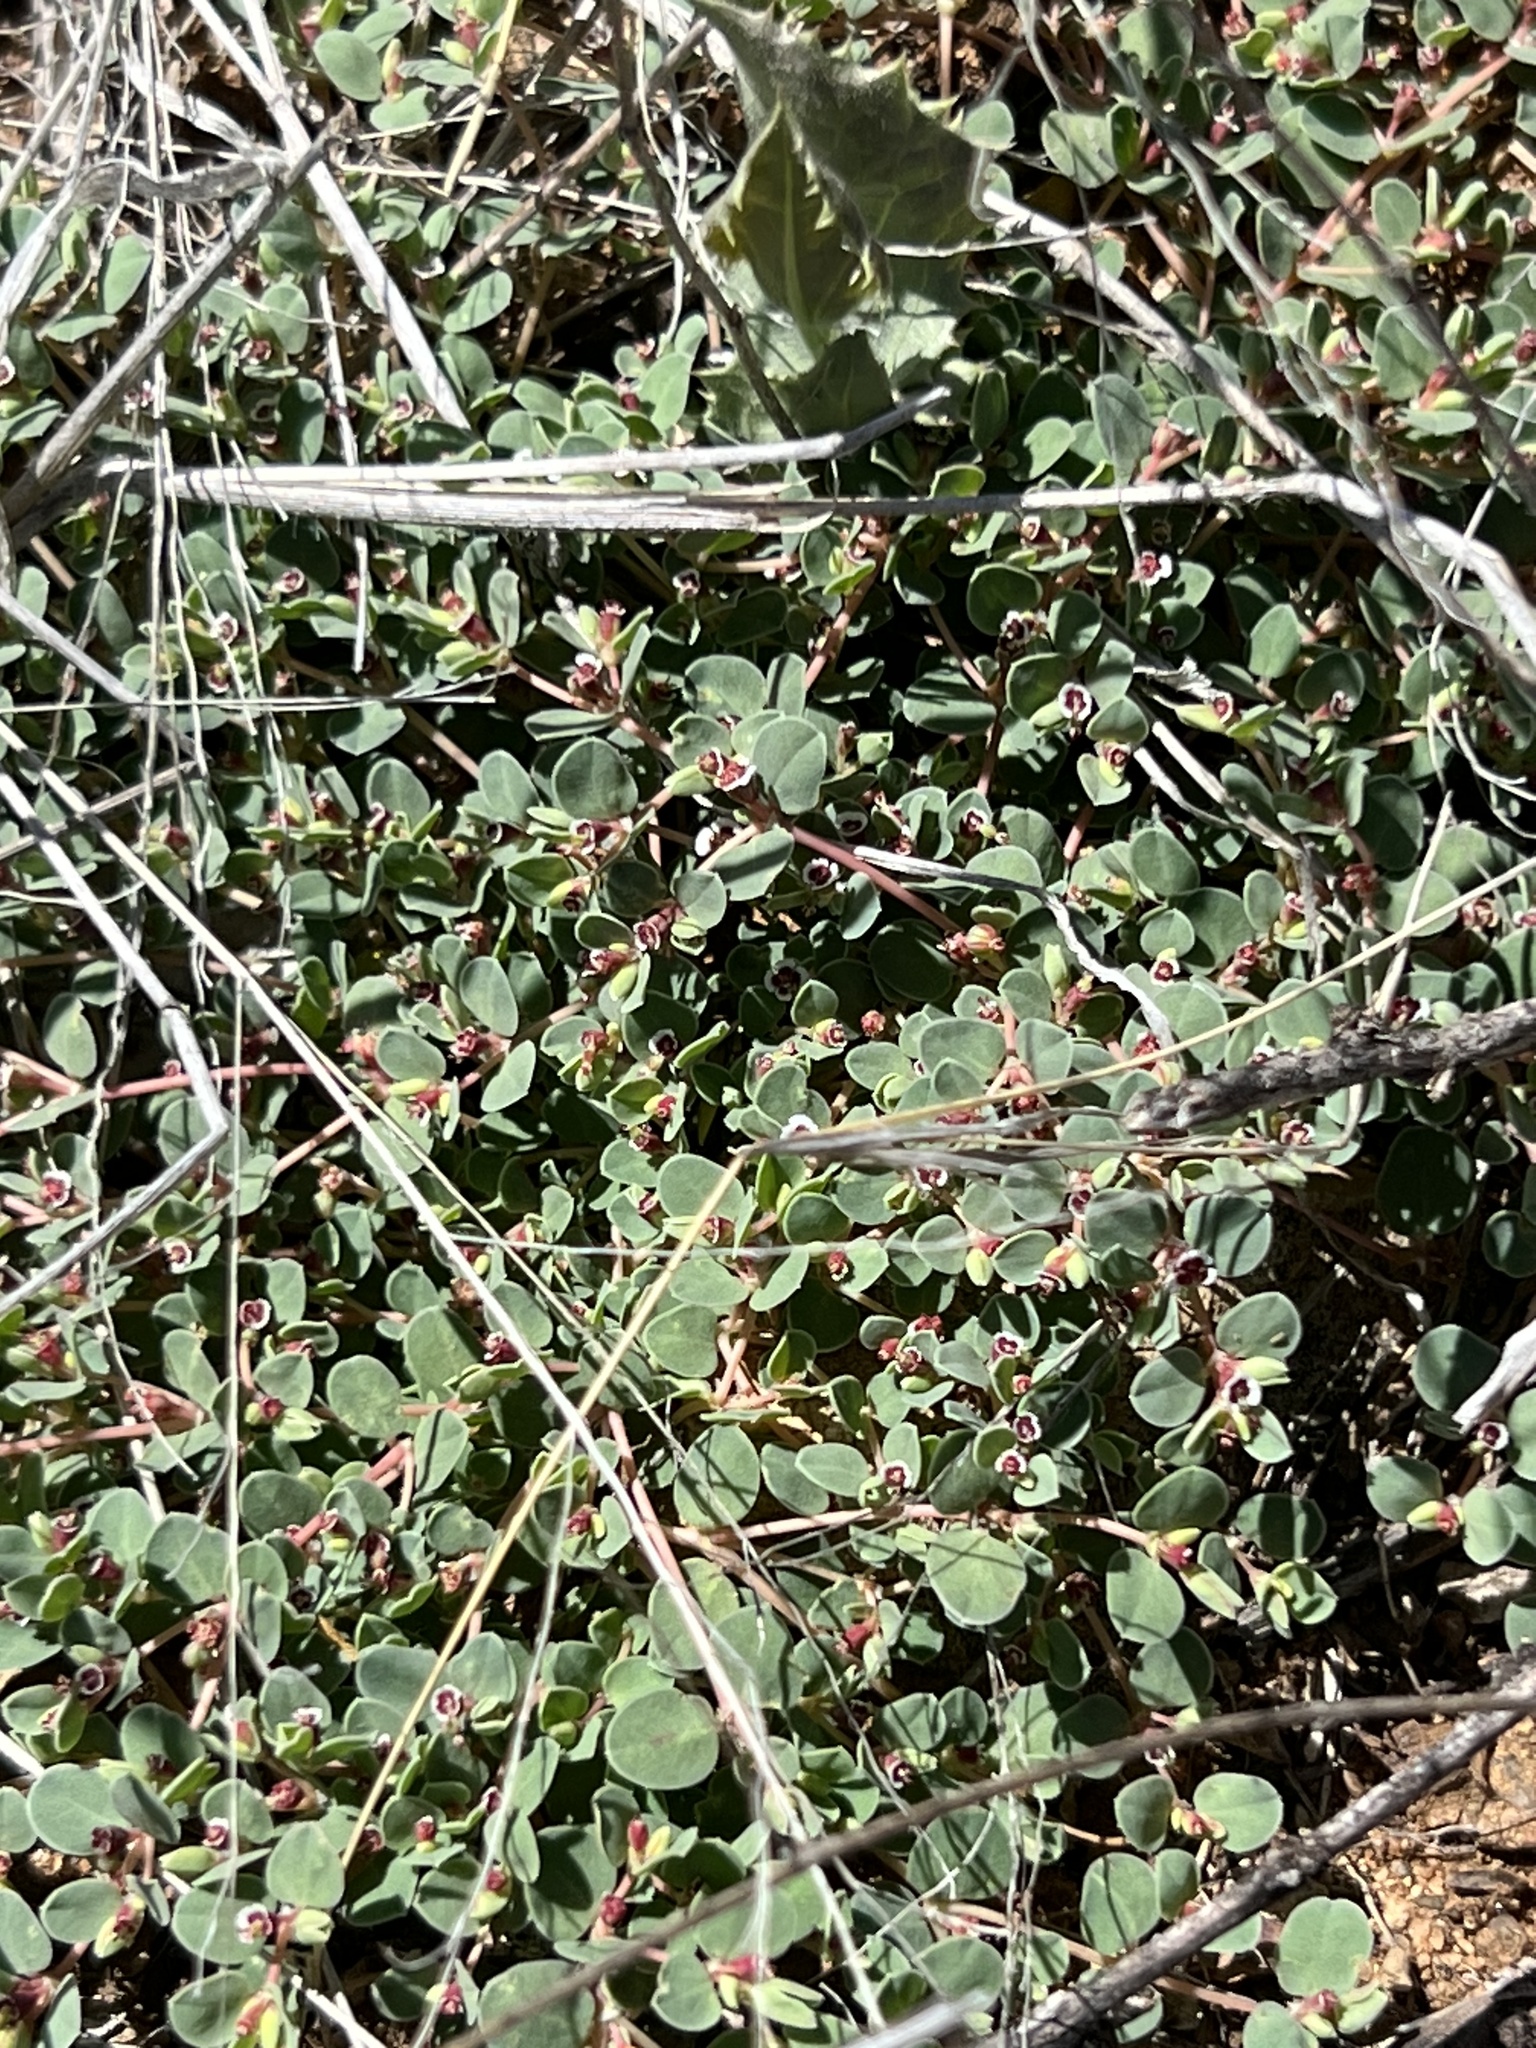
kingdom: Plantae
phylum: Tracheophyta
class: Magnoliopsida
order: Malpighiales
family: Euphorbiaceae
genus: Euphorbia
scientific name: Euphorbia albomarginata
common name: Whitemargin sandmat
